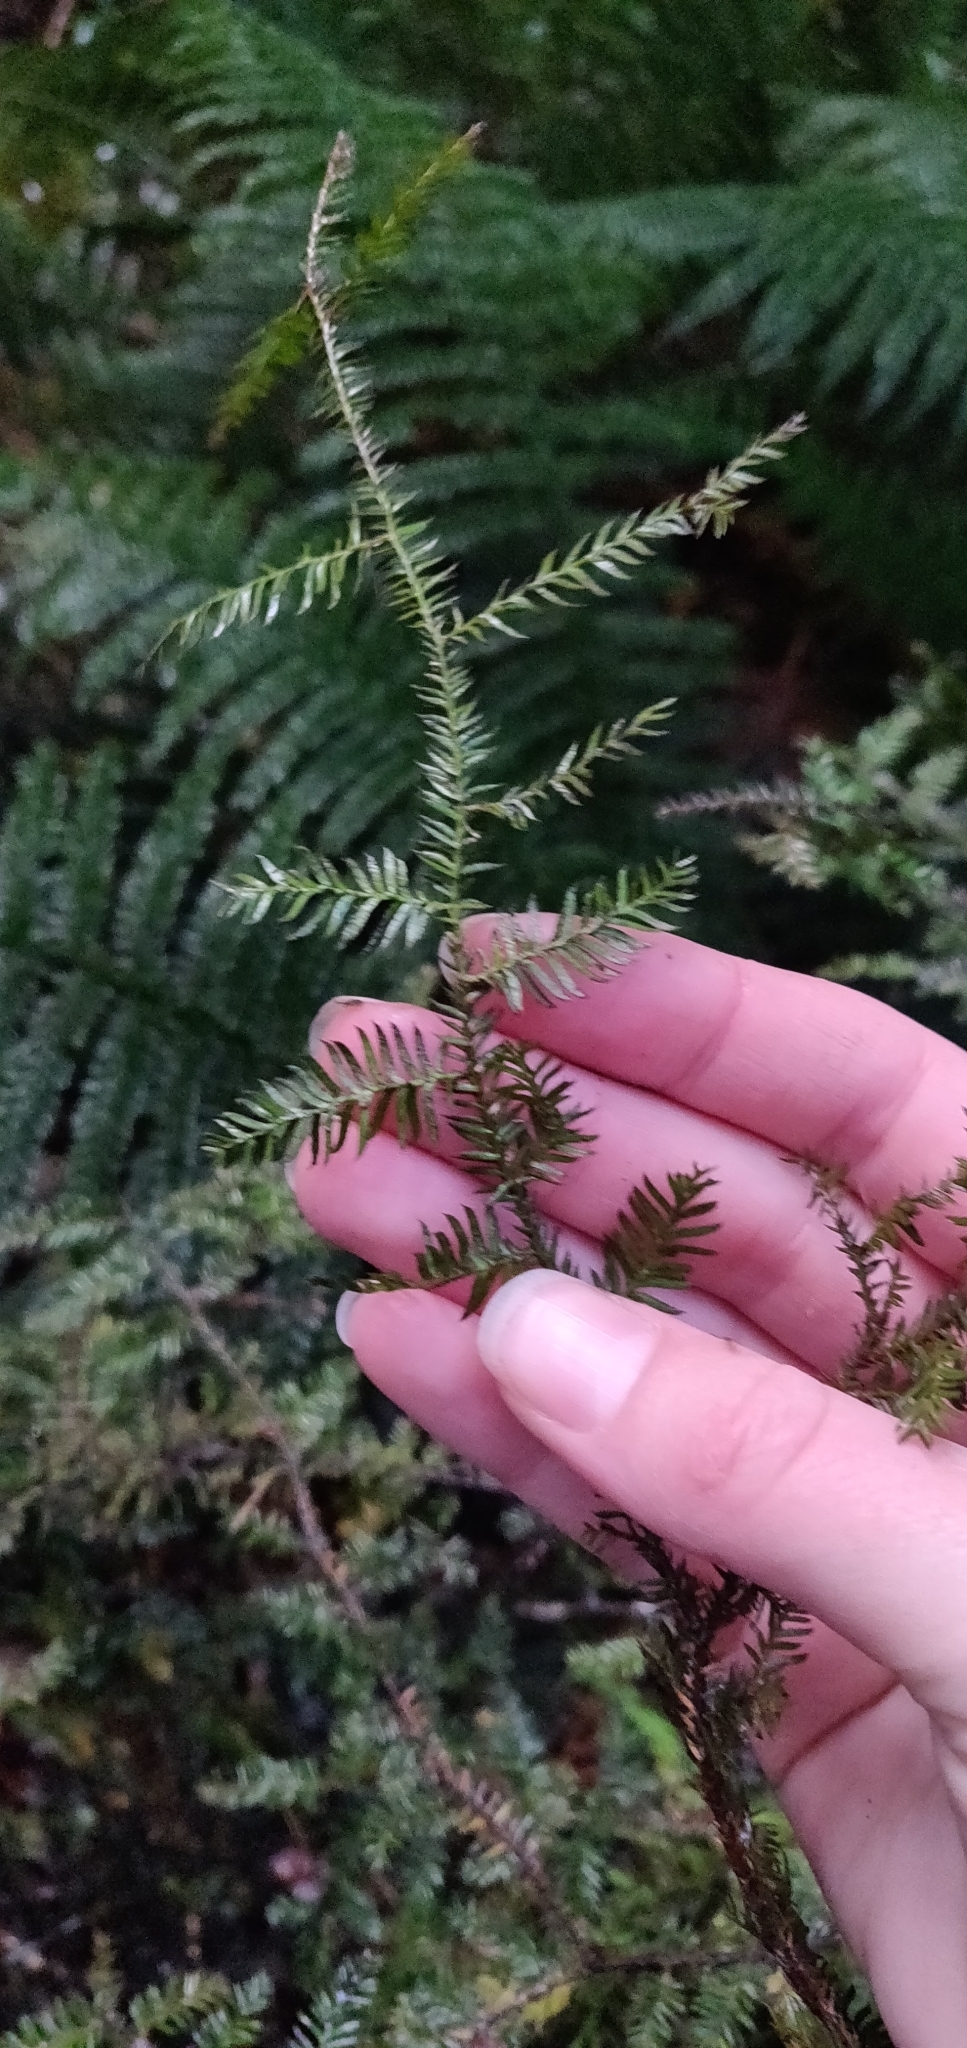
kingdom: Plantae
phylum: Tracheophyta
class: Pinopsida
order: Pinales
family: Podocarpaceae
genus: Dacrycarpus
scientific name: Dacrycarpus dacrydioides
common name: White pine
